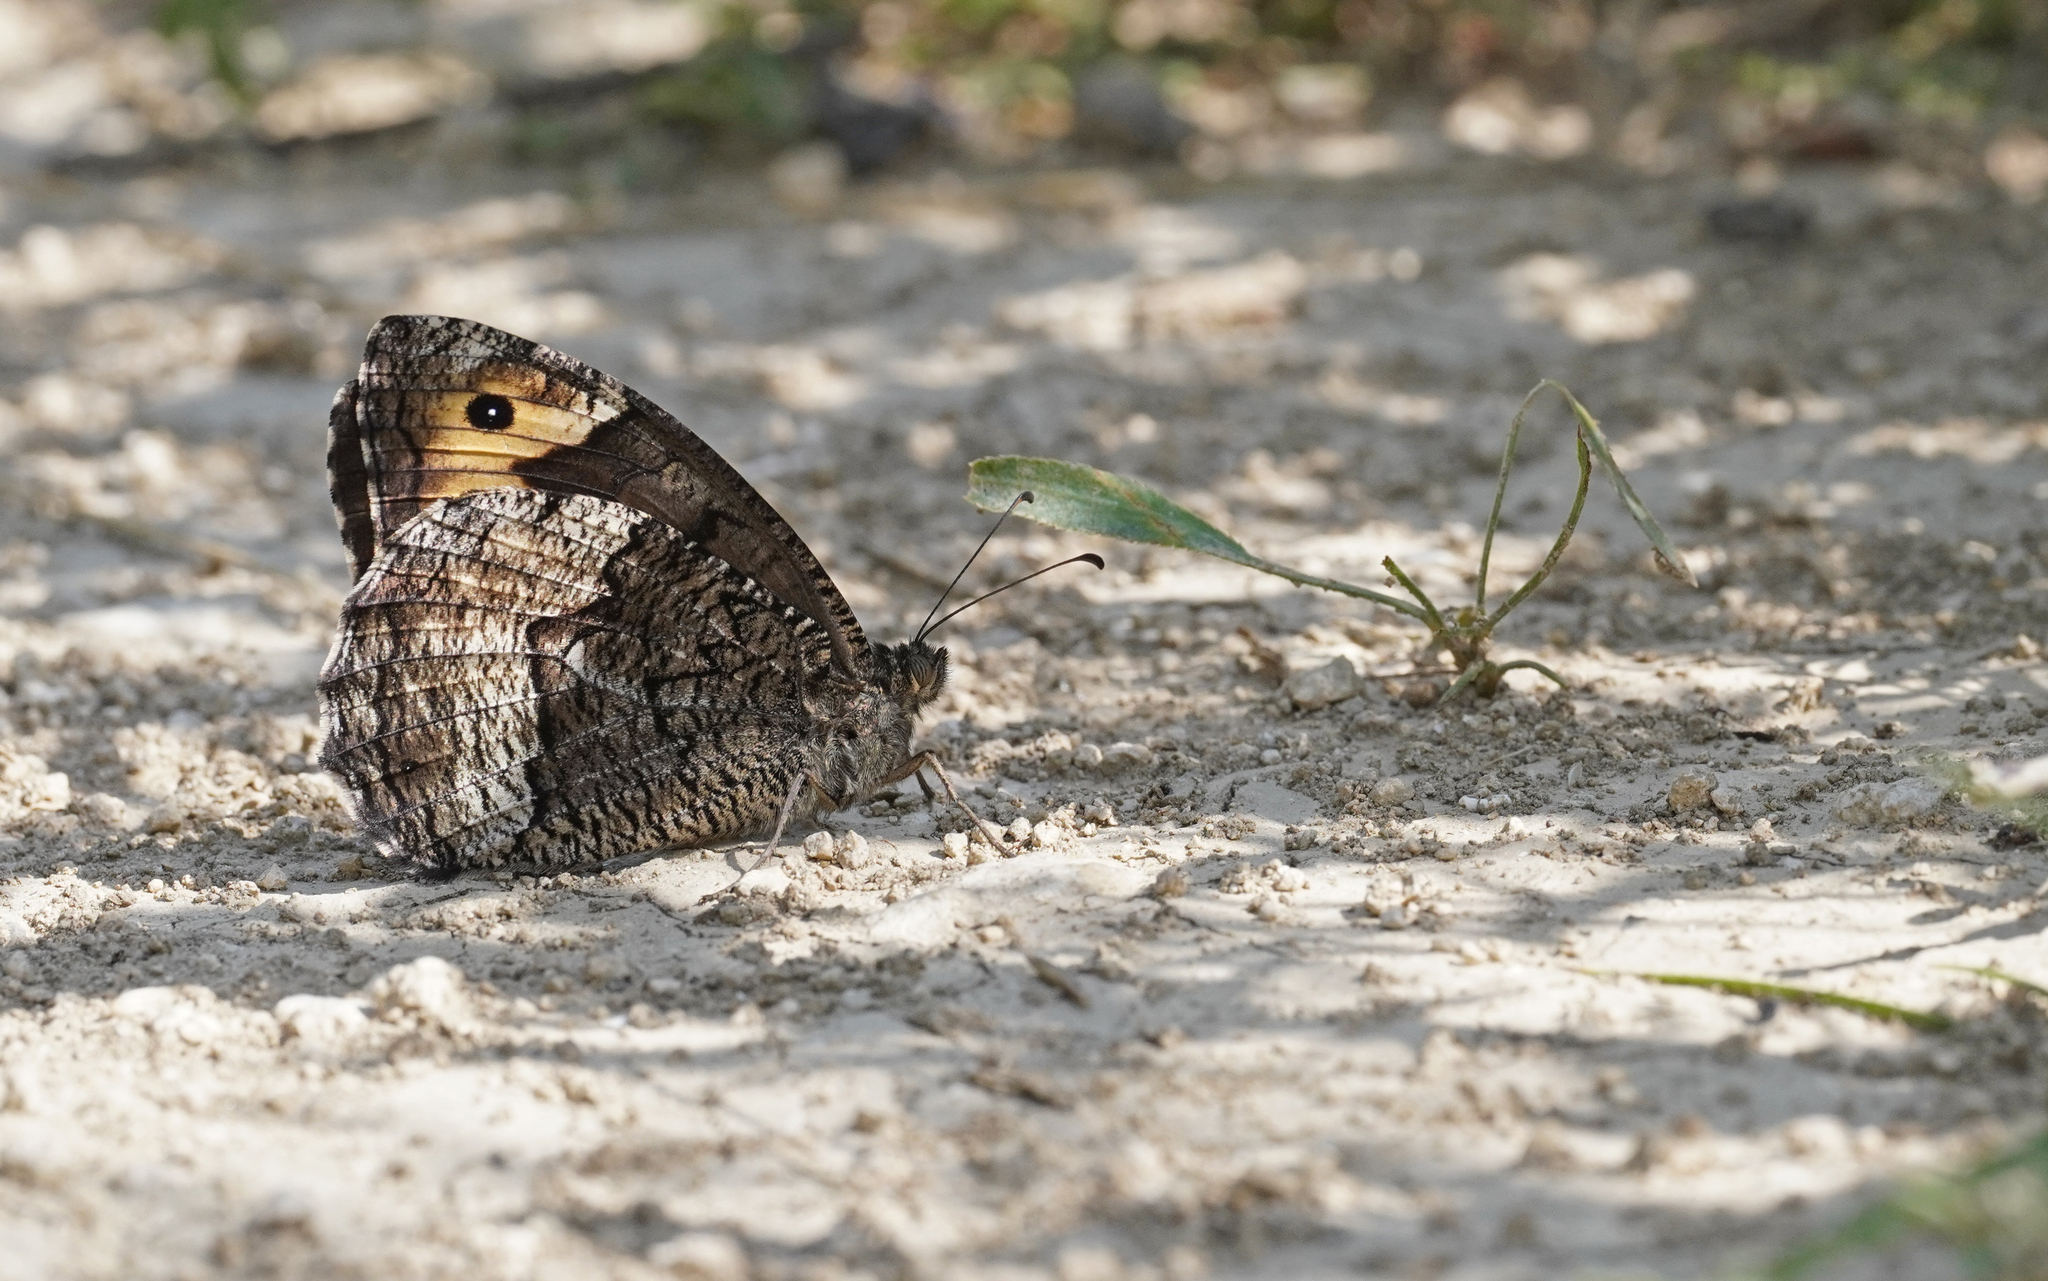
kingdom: Animalia
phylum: Arthropoda
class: Insecta
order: Lepidoptera
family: Nymphalidae
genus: Hipparchia
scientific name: Hipparchia fagi
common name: Woodland grayling
